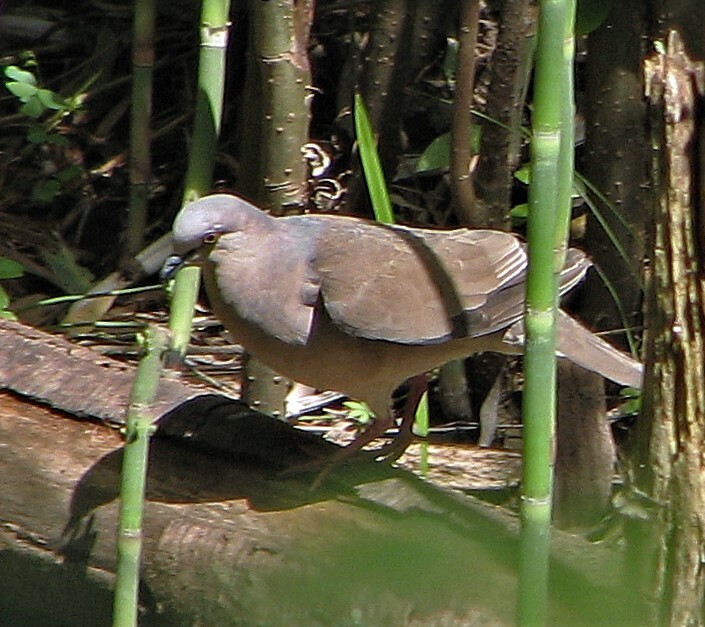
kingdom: Animalia
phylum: Chordata
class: Aves
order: Columbiformes
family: Columbidae
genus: Leptotila
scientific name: Leptotila verreauxi
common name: White-tipped dove
